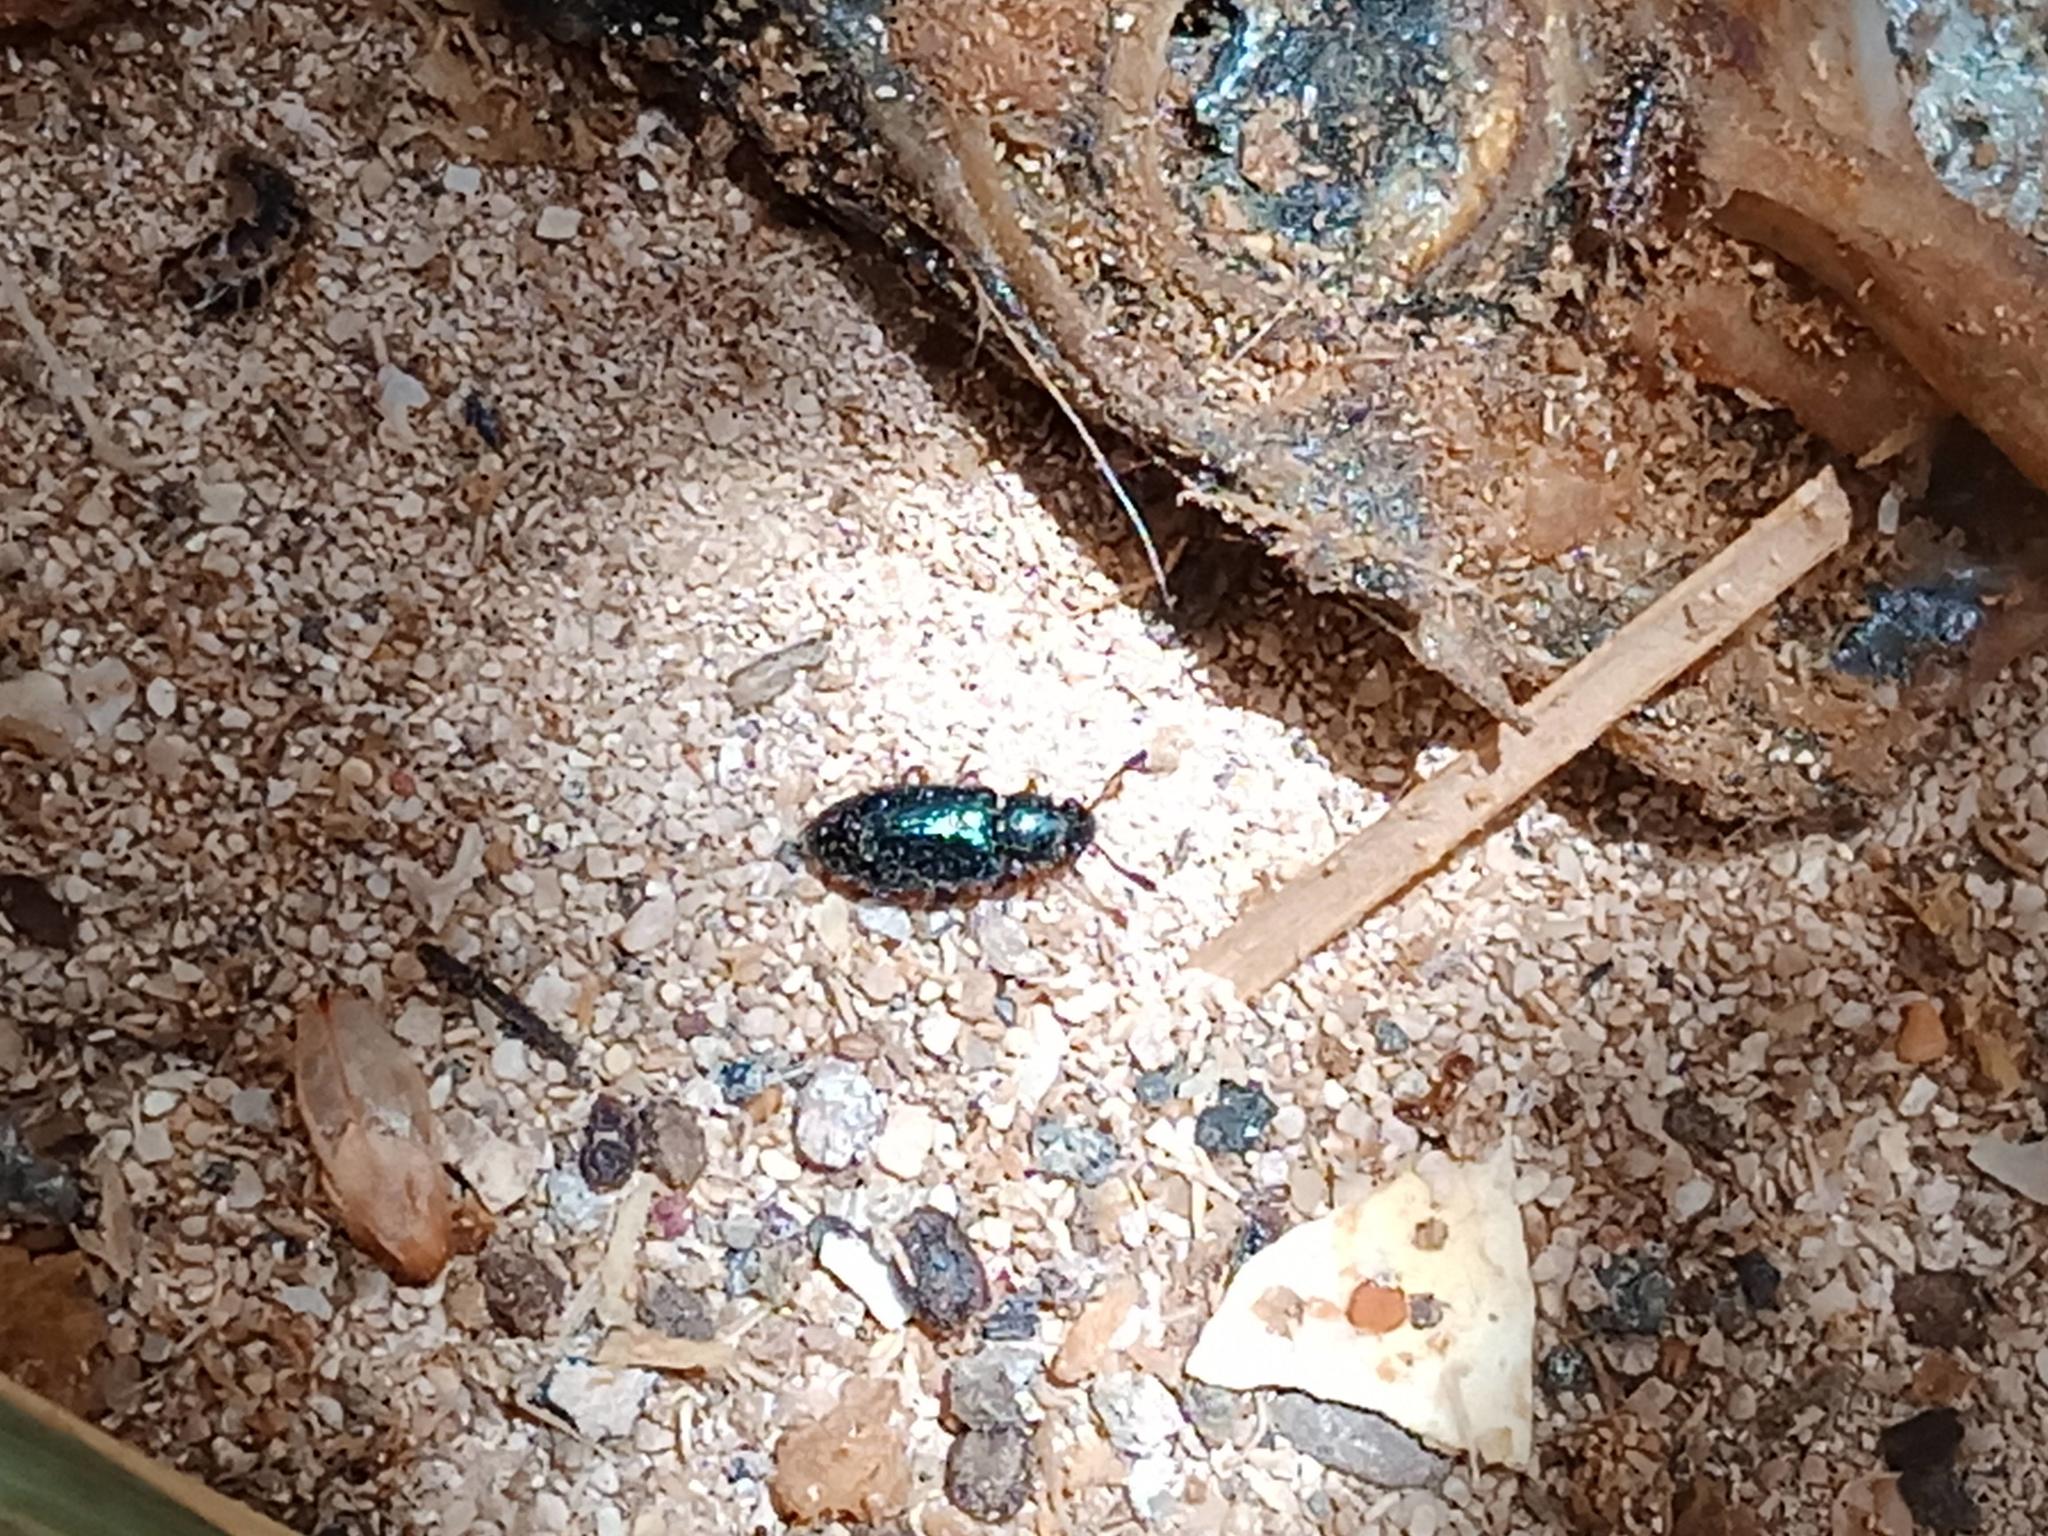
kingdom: Animalia
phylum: Arthropoda
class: Insecta
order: Coleoptera
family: Cleridae
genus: Necrobia
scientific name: Necrobia rufipes
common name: Red-legged ham beetle
